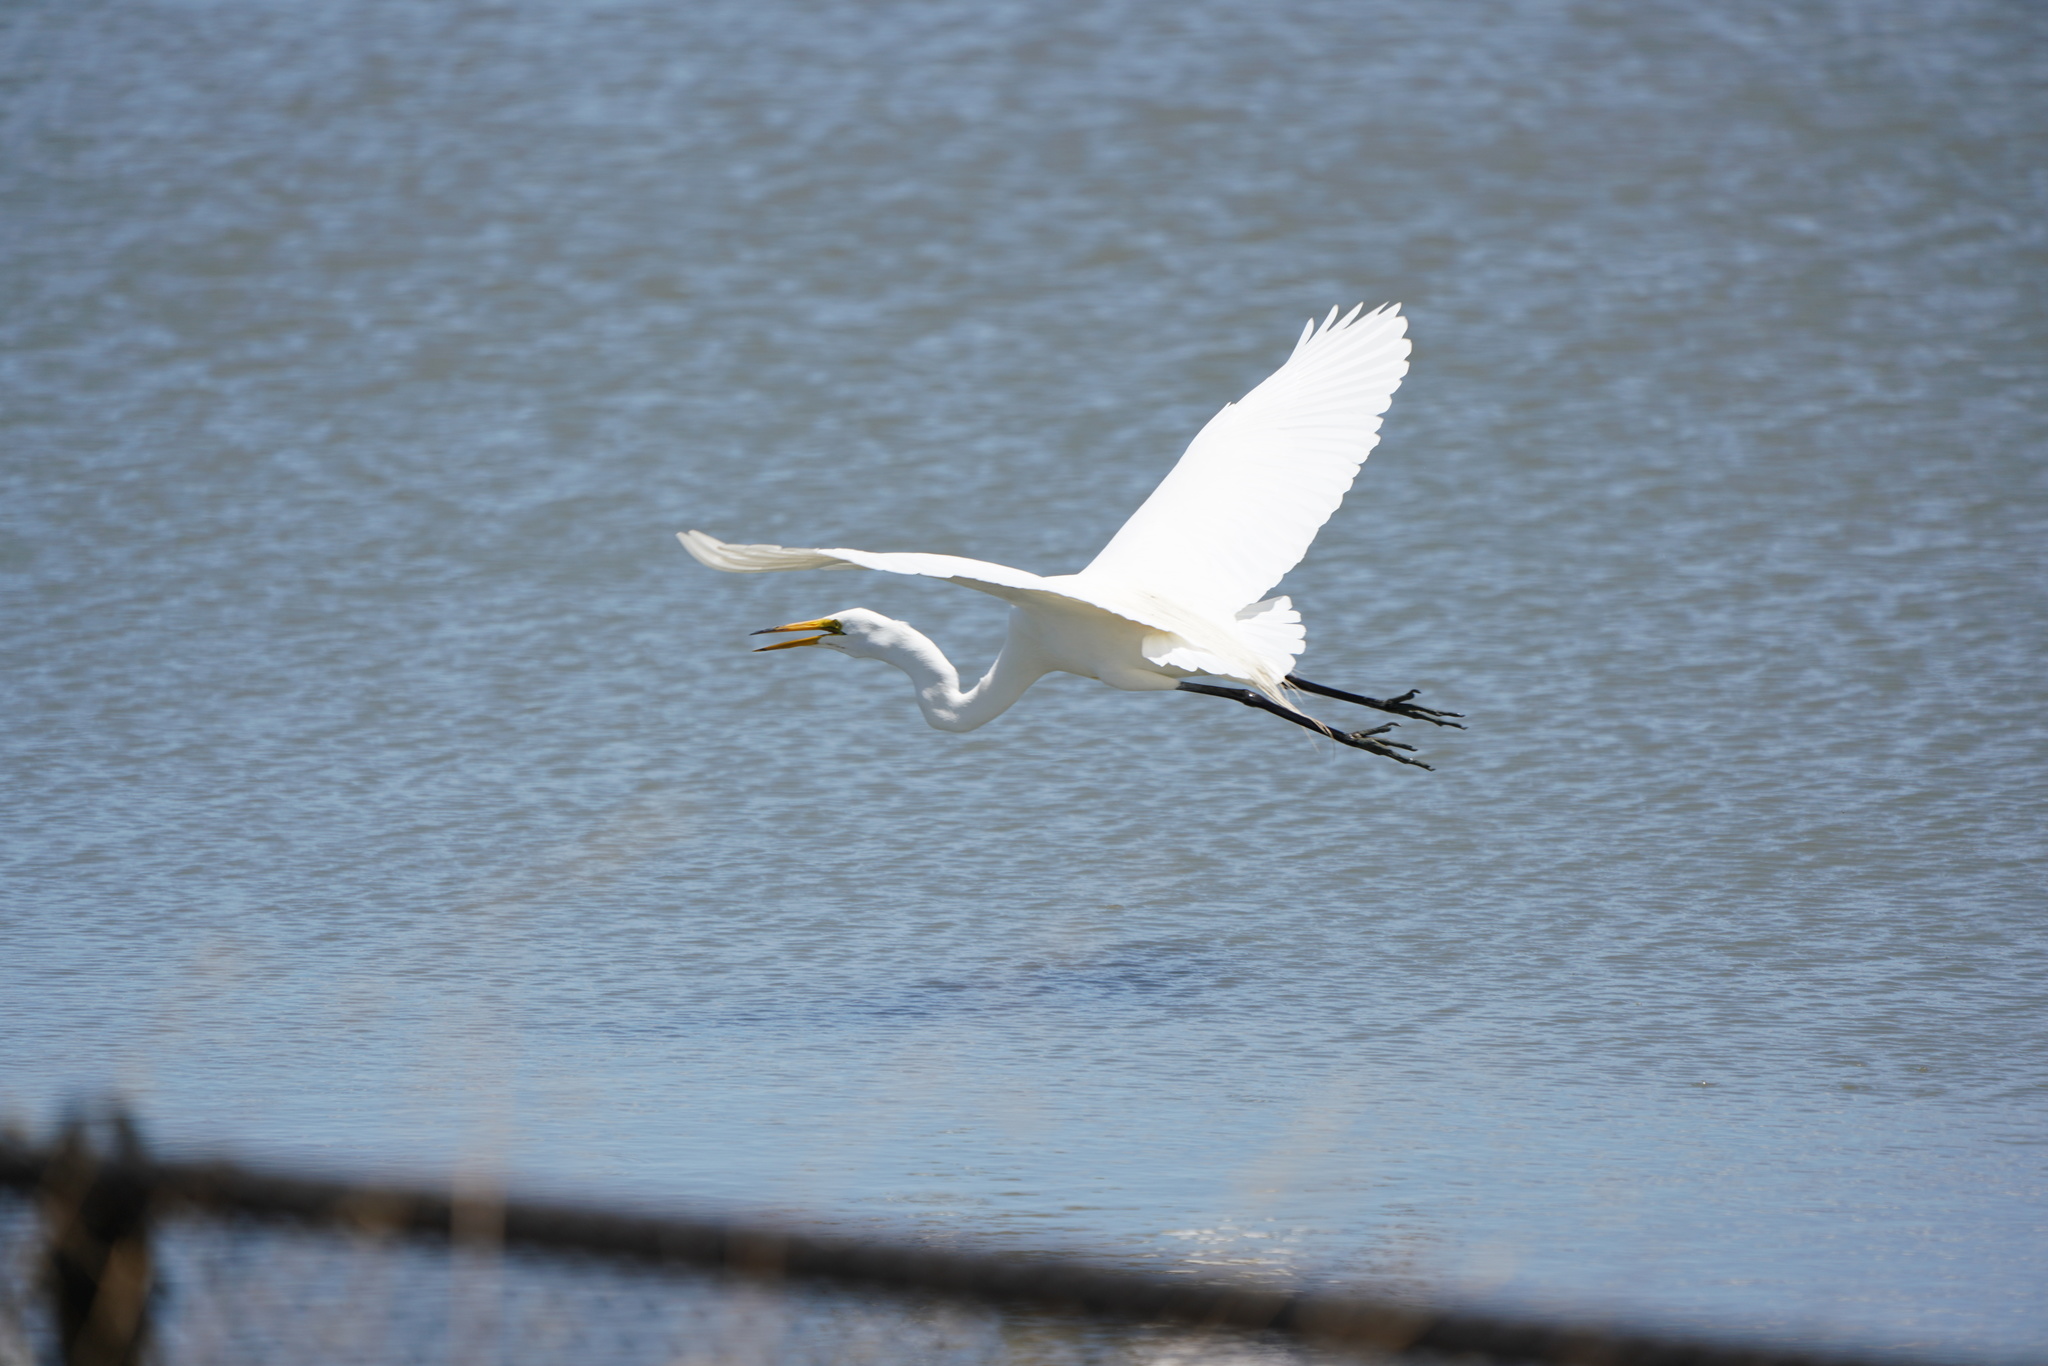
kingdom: Animalia
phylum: Chordata
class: Aves
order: Pelecaniformes
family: Ardeidae
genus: Ardea
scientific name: Ardea alba
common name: Great egret
